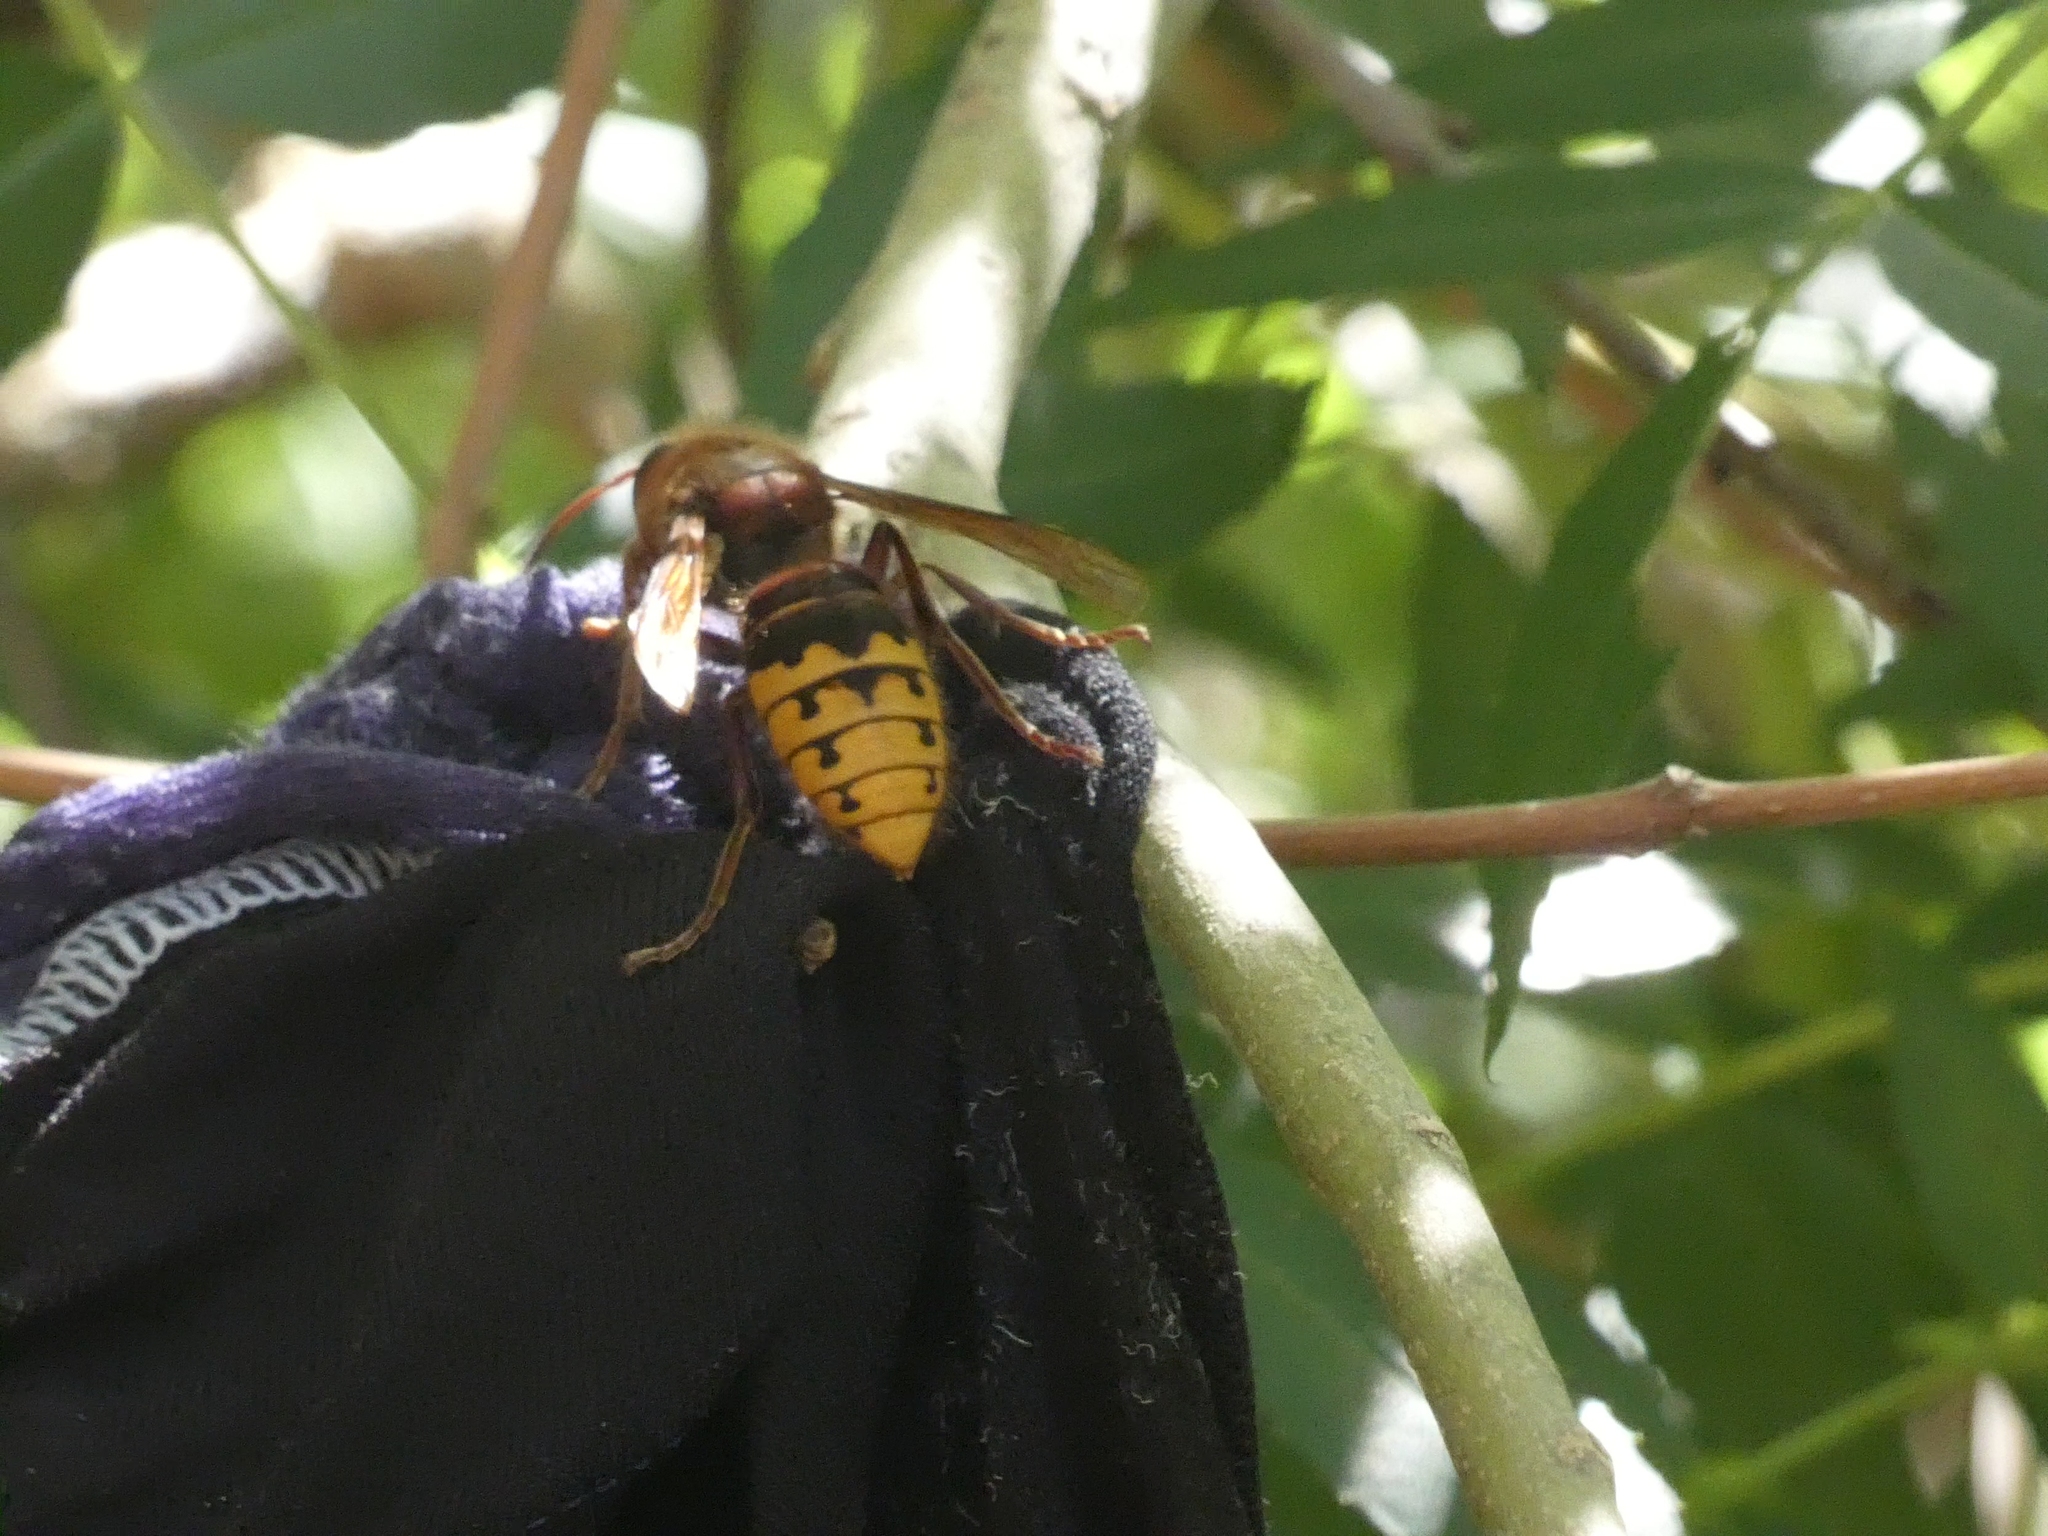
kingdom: Animalia
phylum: Arthropoda
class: Insecta
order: Hymenoptera
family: Vespidae
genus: Vespa
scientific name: Vespa crabro
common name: Hornet
